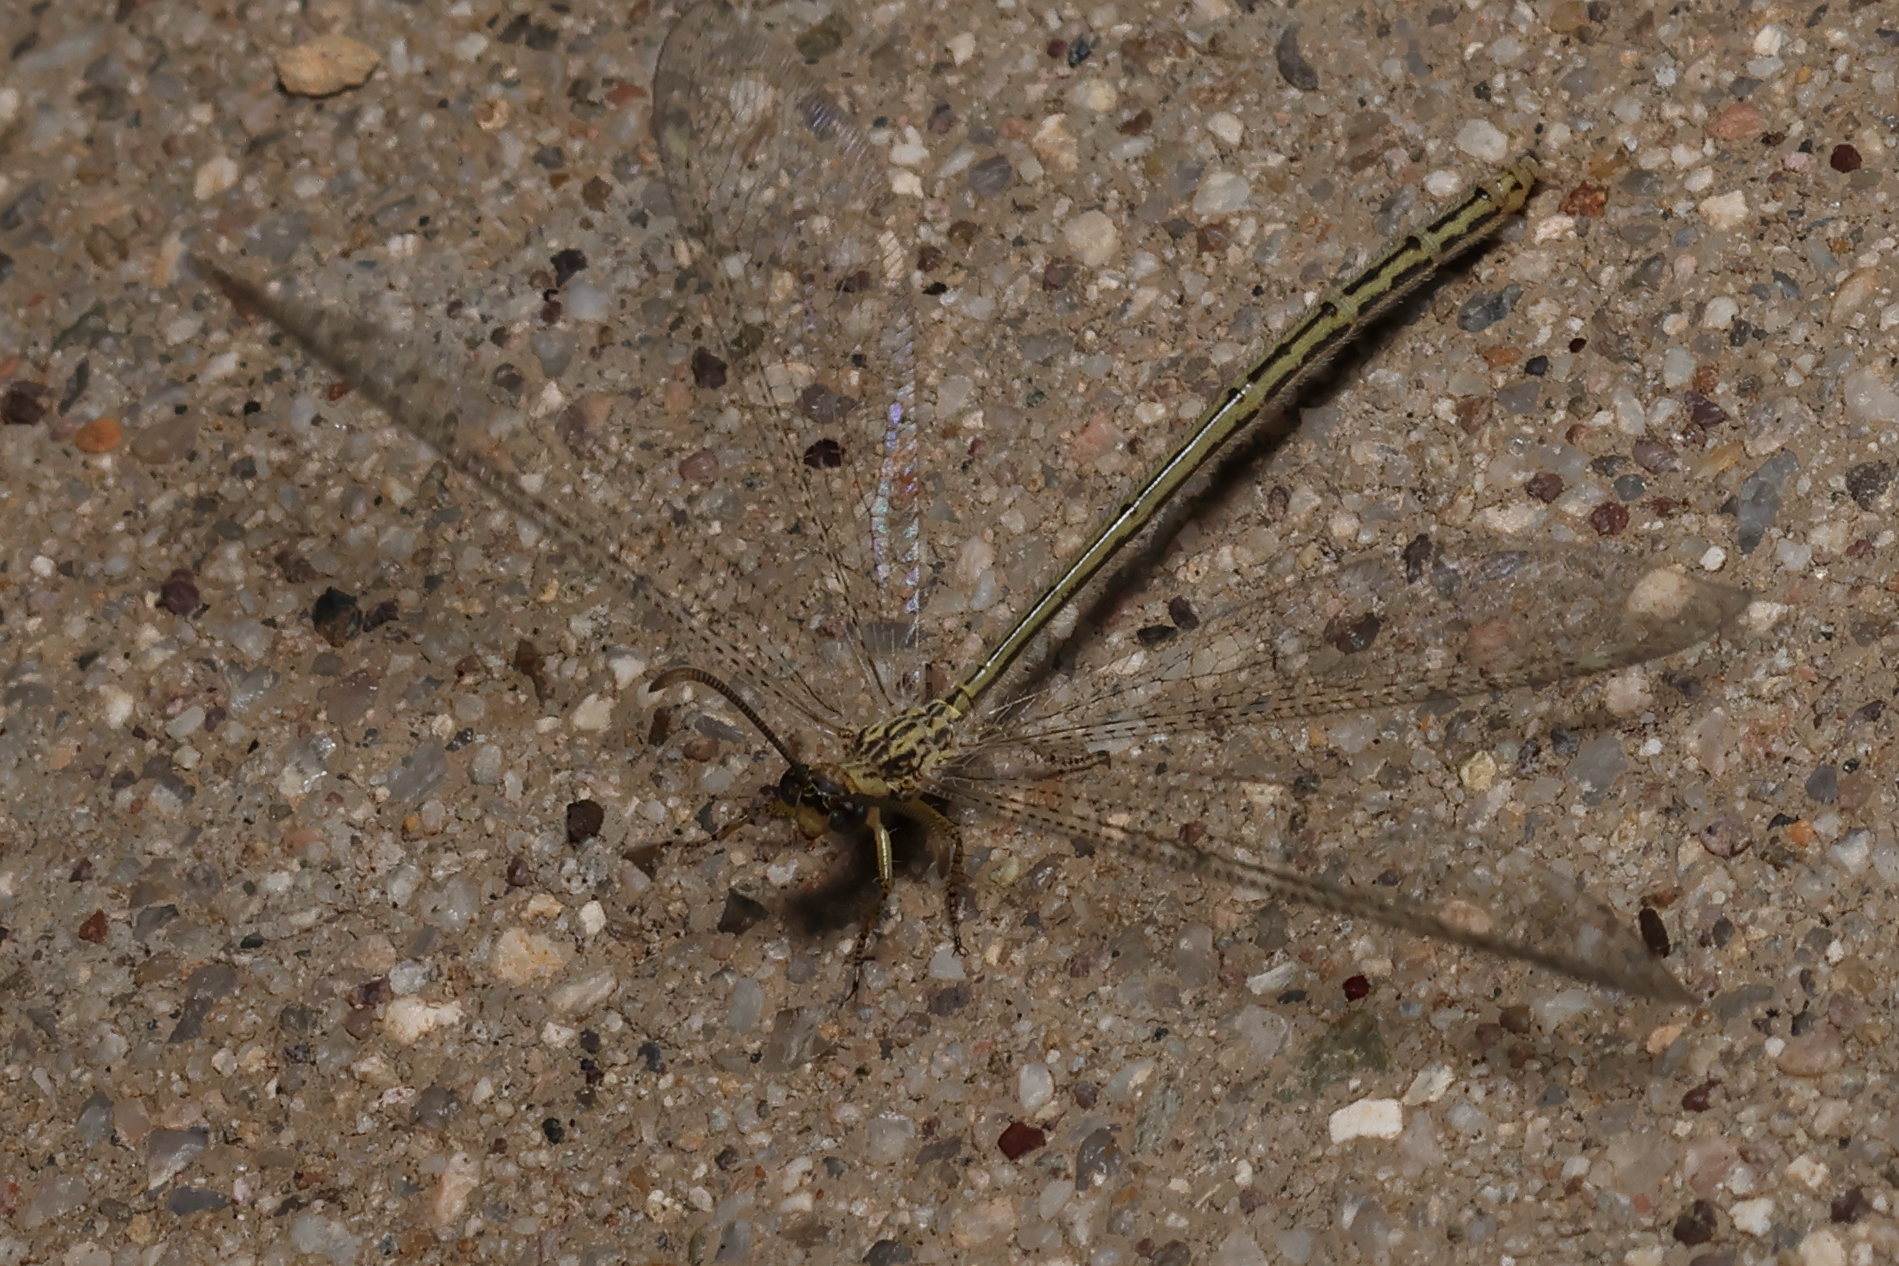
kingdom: Animalia
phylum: Arthropoda
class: Insecta
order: Neuroptera
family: Myrmeleontidae
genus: Brachynemurus
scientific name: Brachynemurus hubbardii
